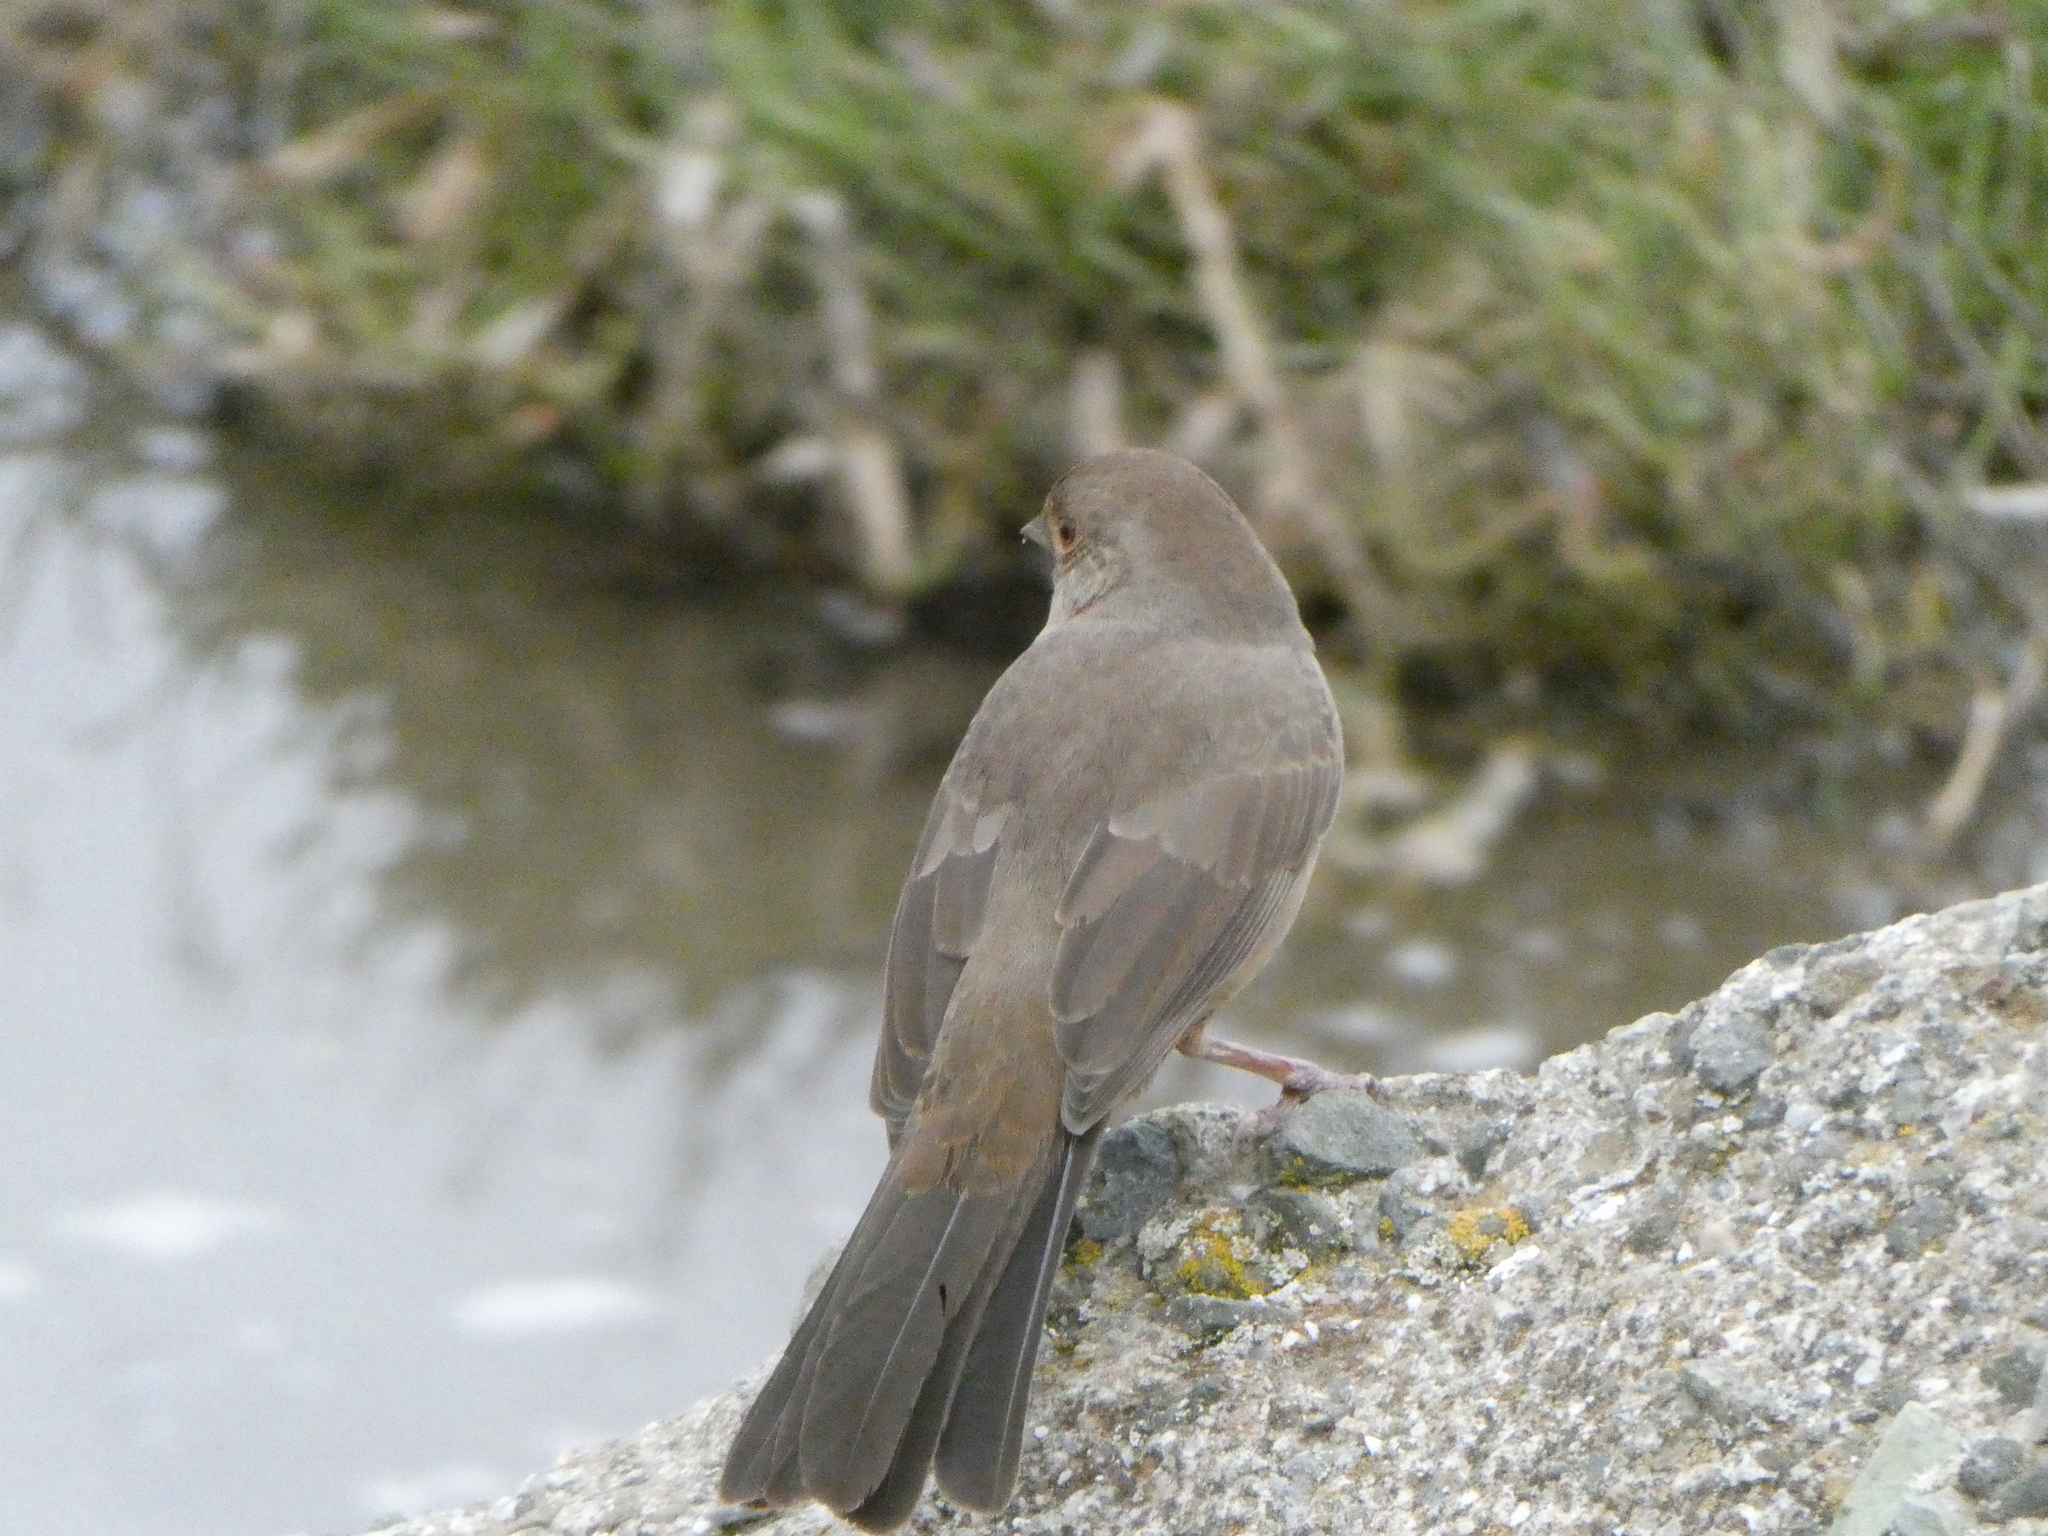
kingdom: Animalia
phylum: Chordata
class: Aves
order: Passeriformes
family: Passerellidae
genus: Melozone
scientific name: Melozone crissalis
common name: California towhee
